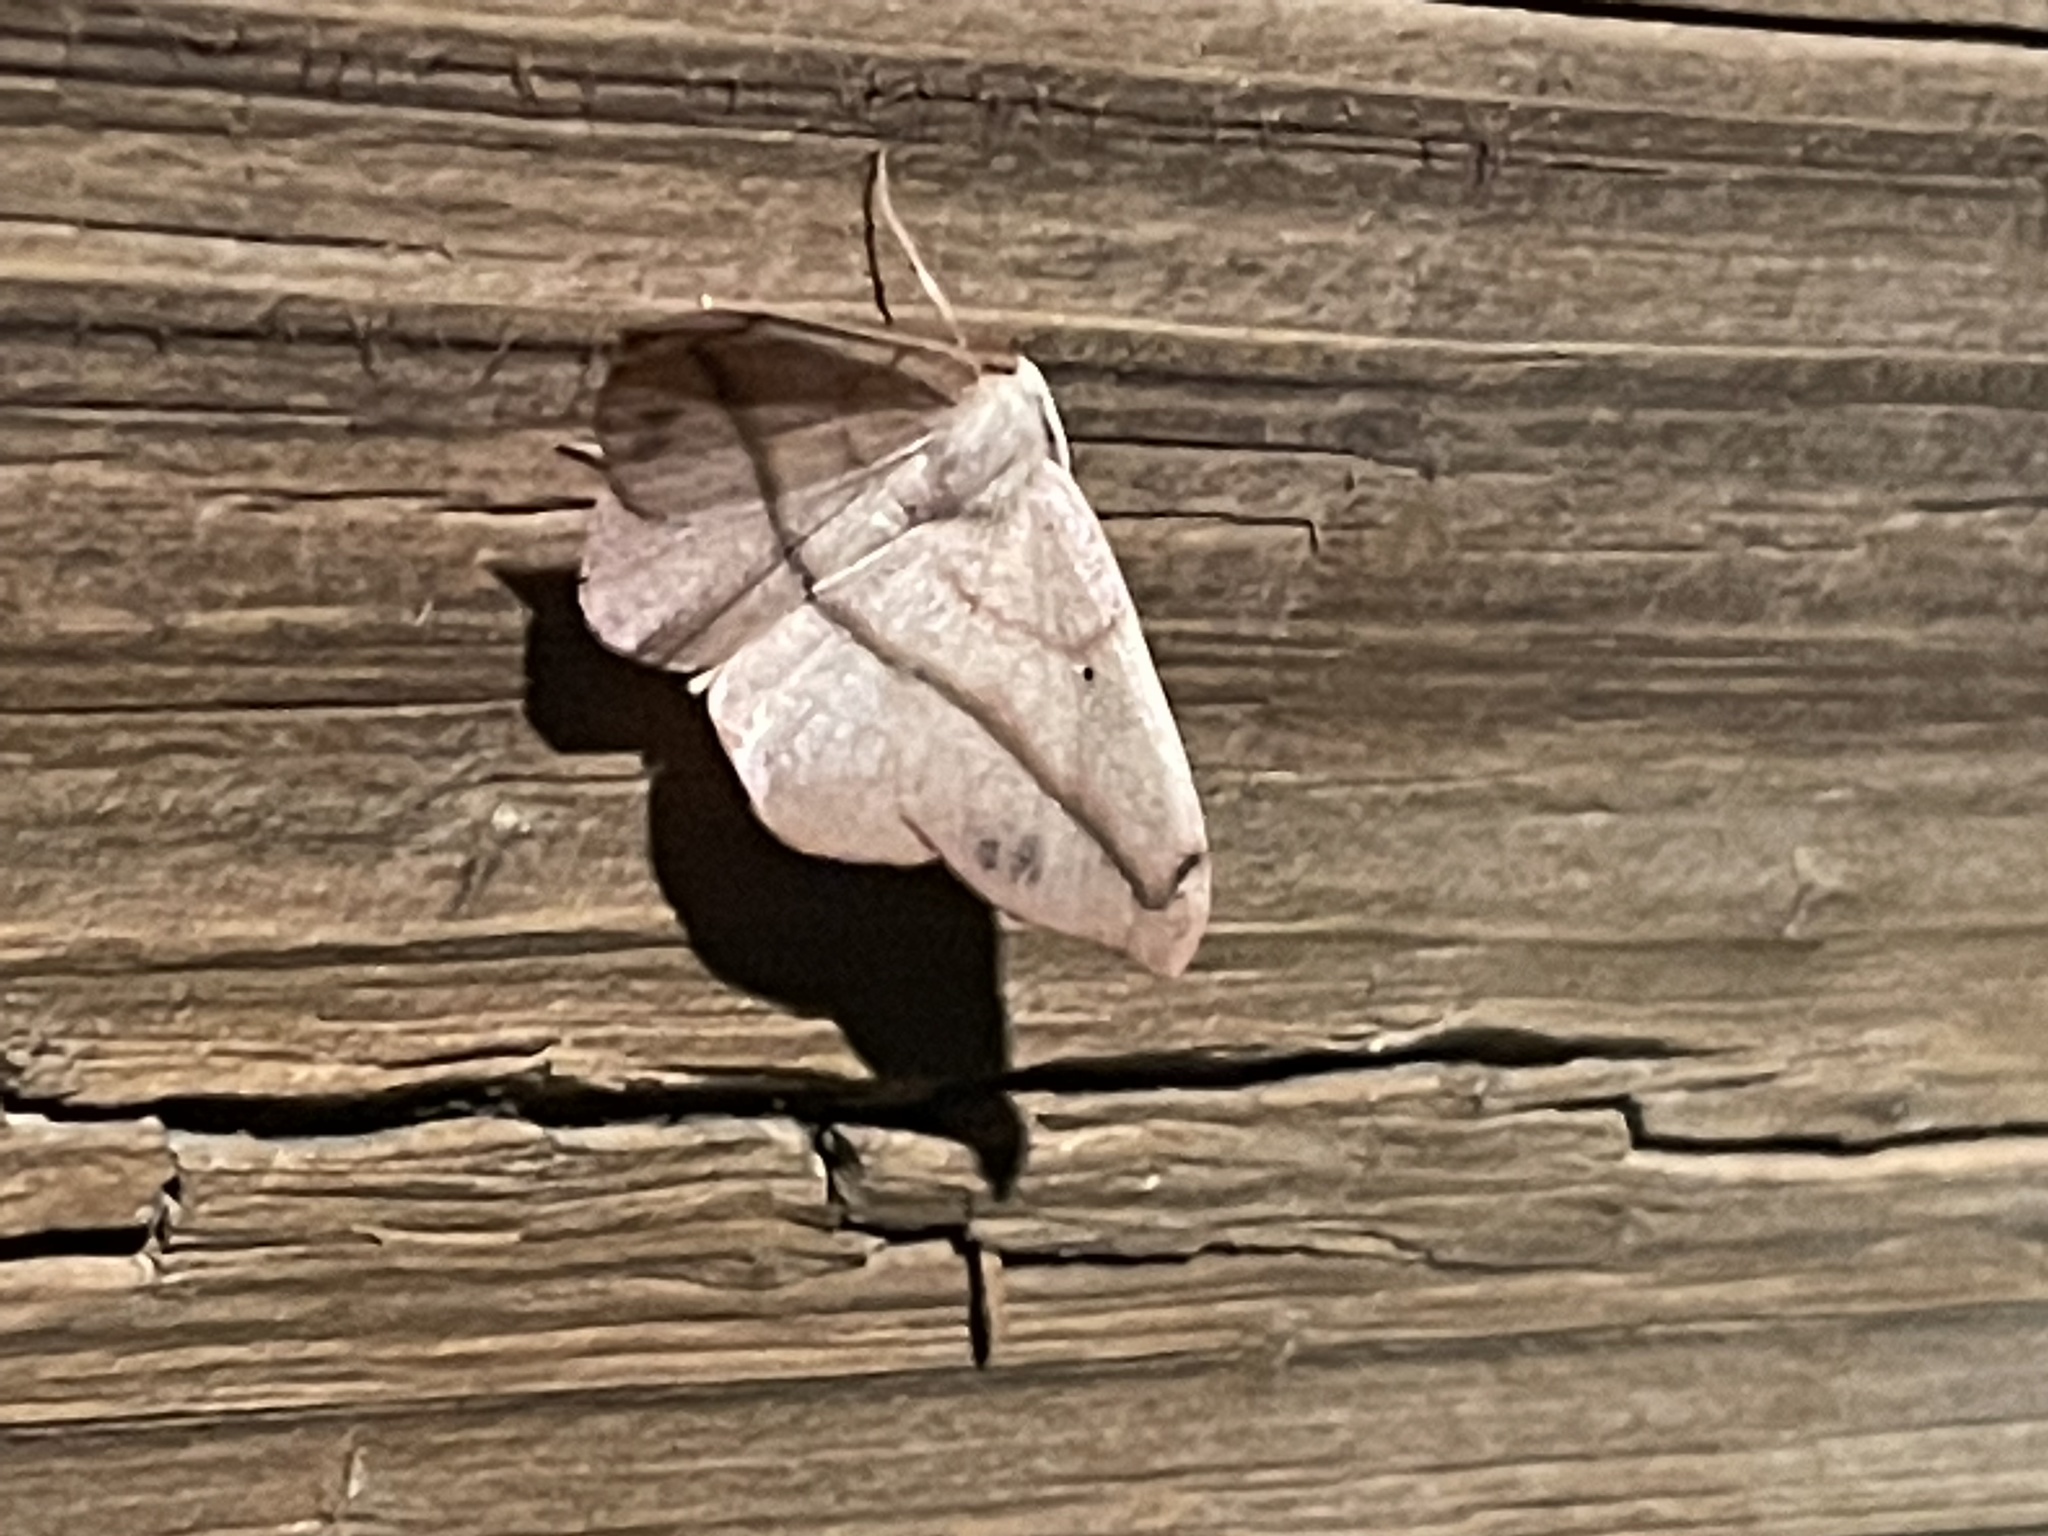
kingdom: Animalia
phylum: Arthropoda
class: Insecta
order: Lepidoptera
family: Geometridae
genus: Patalene
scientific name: Patalene olyzonaria
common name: Juniper geometer moth
